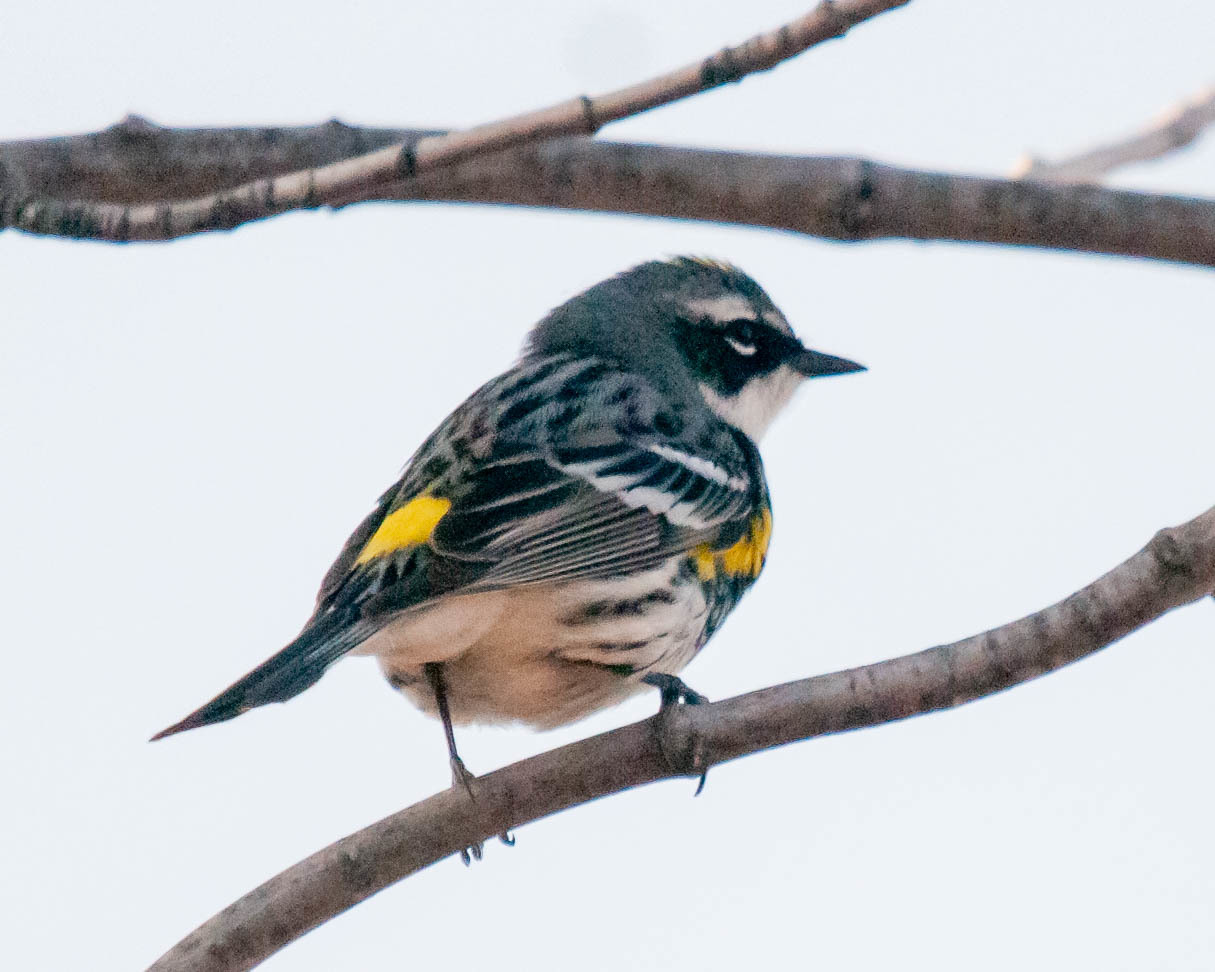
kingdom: Animalia
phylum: Chordata
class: Aves
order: Passeriformes
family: Parulidae
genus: Setophaga
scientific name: Setophaga coronata
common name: Myrtle warbler
